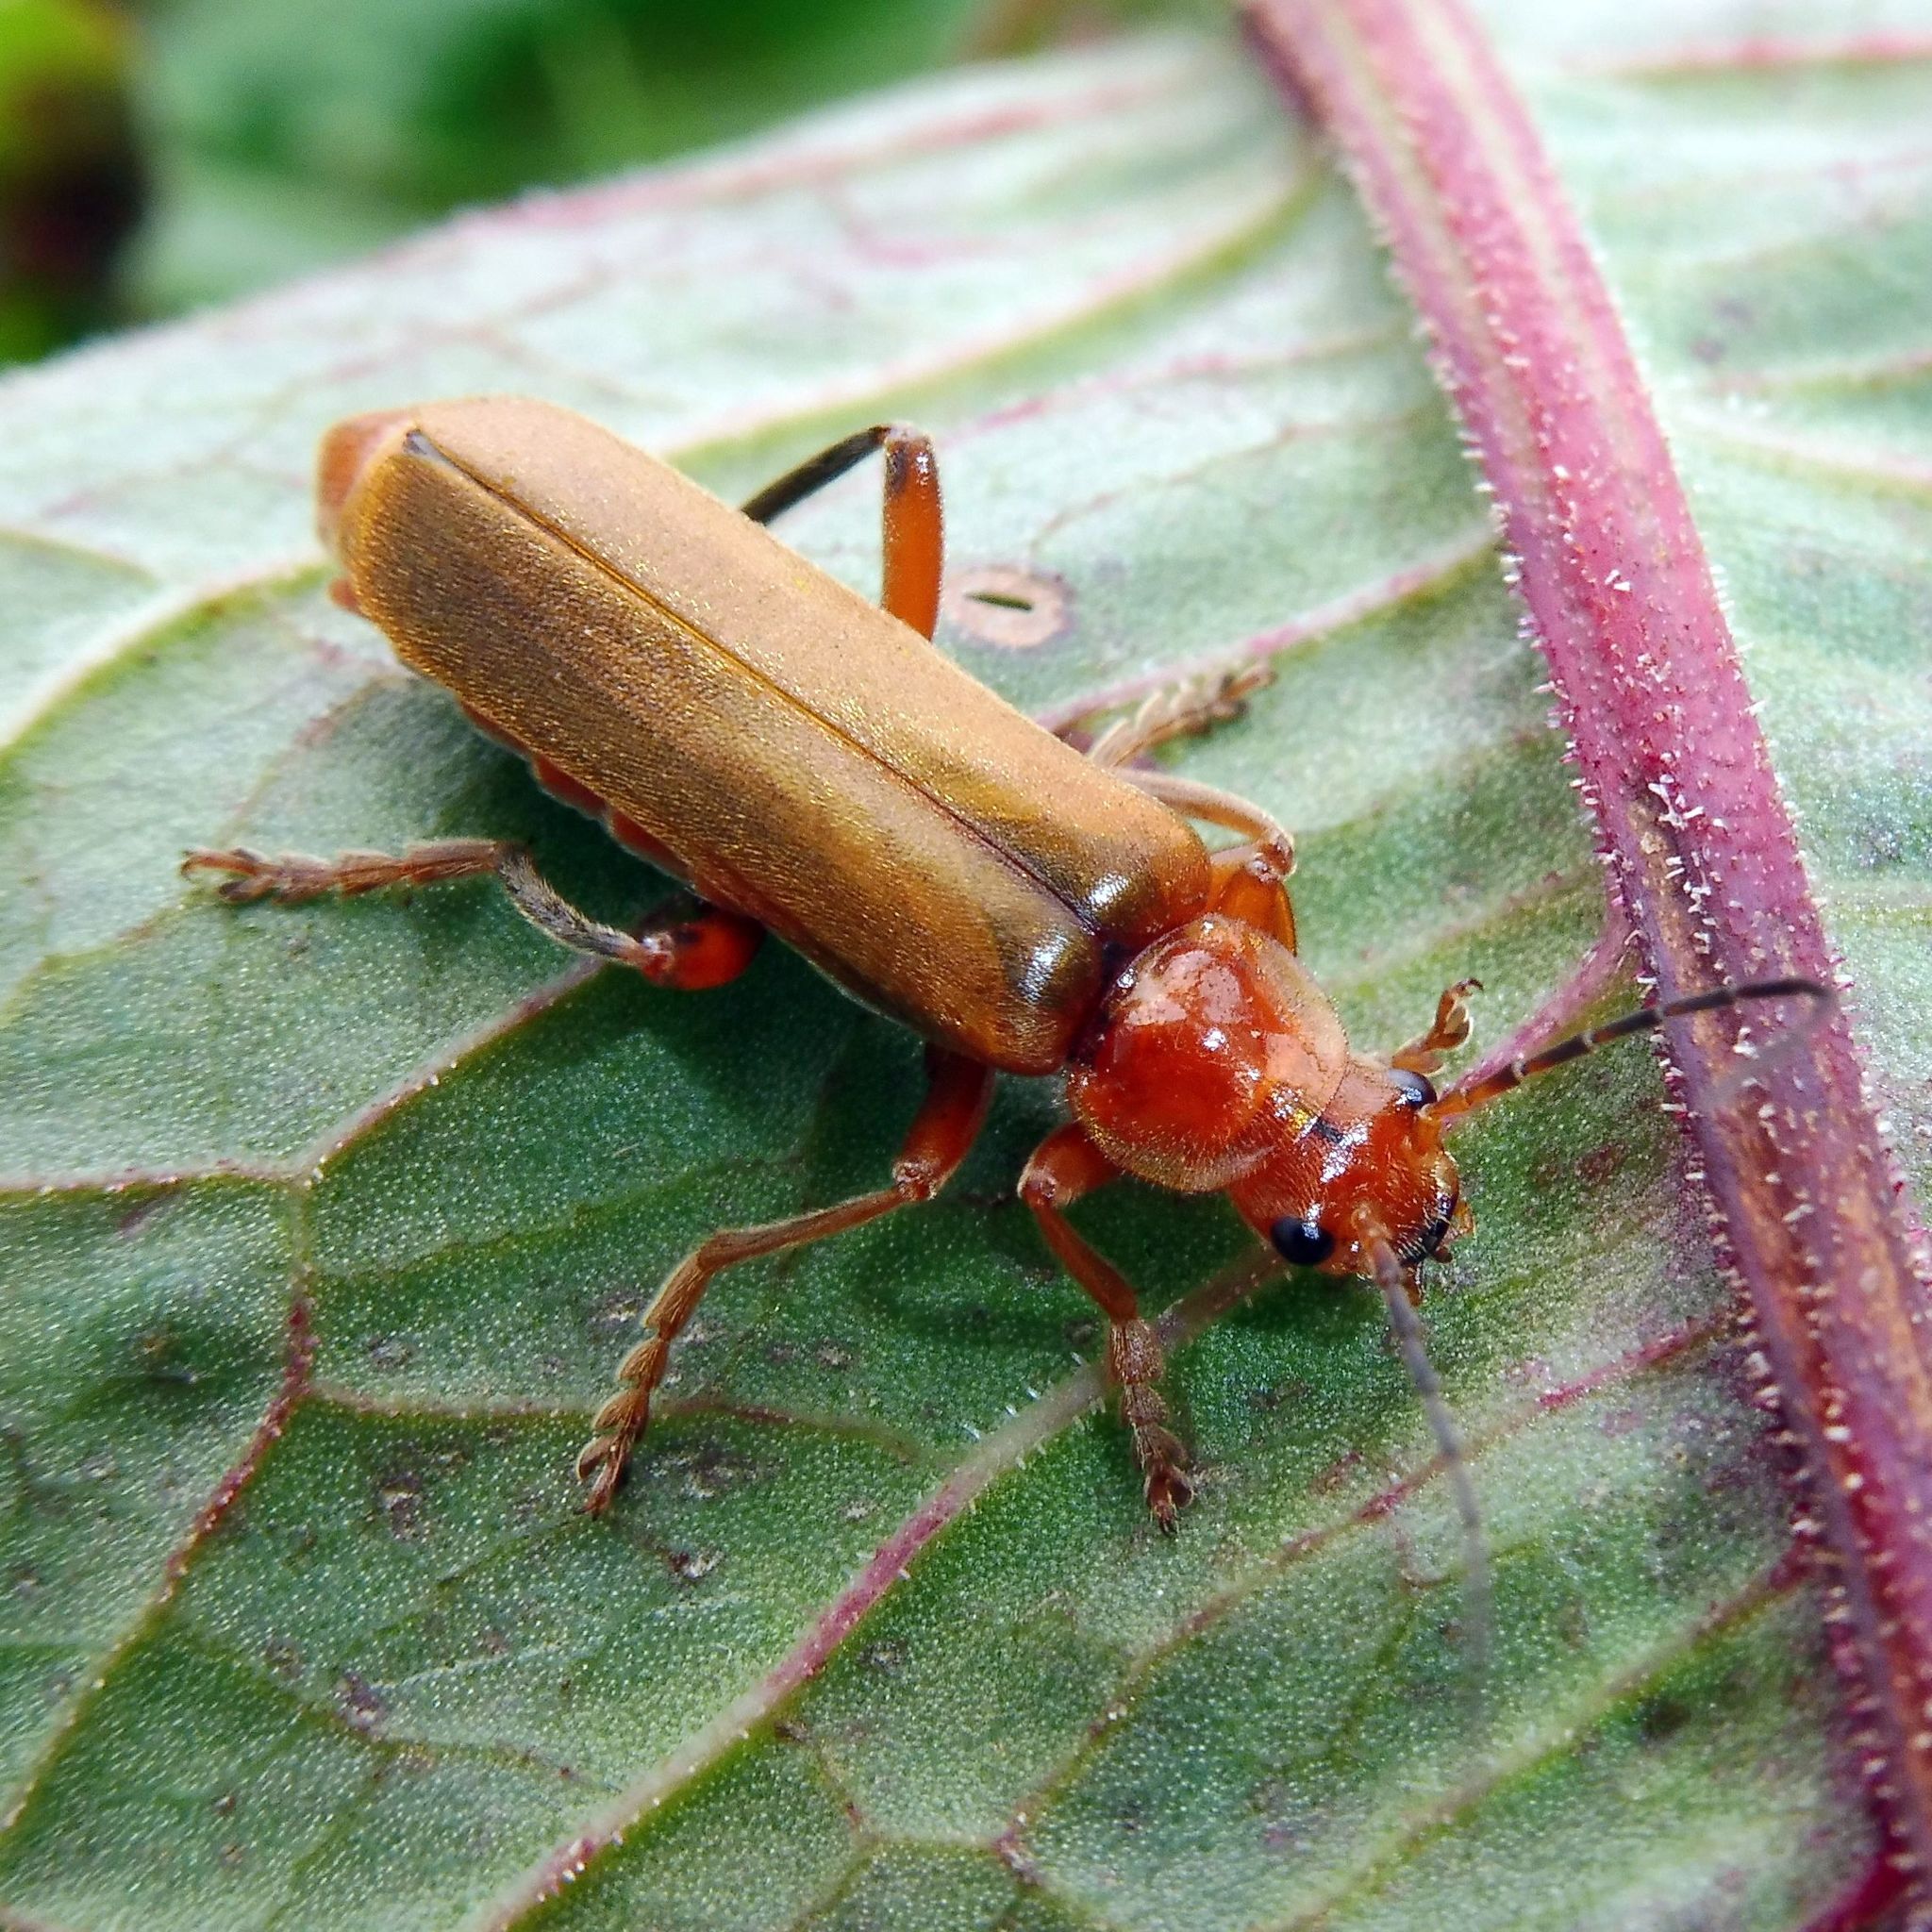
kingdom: Animalia
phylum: Arthropoda
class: Insecta
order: Coleoptera
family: Cantharidae
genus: Cantharis
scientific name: Cantharis livida
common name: Livid soldier beetle
